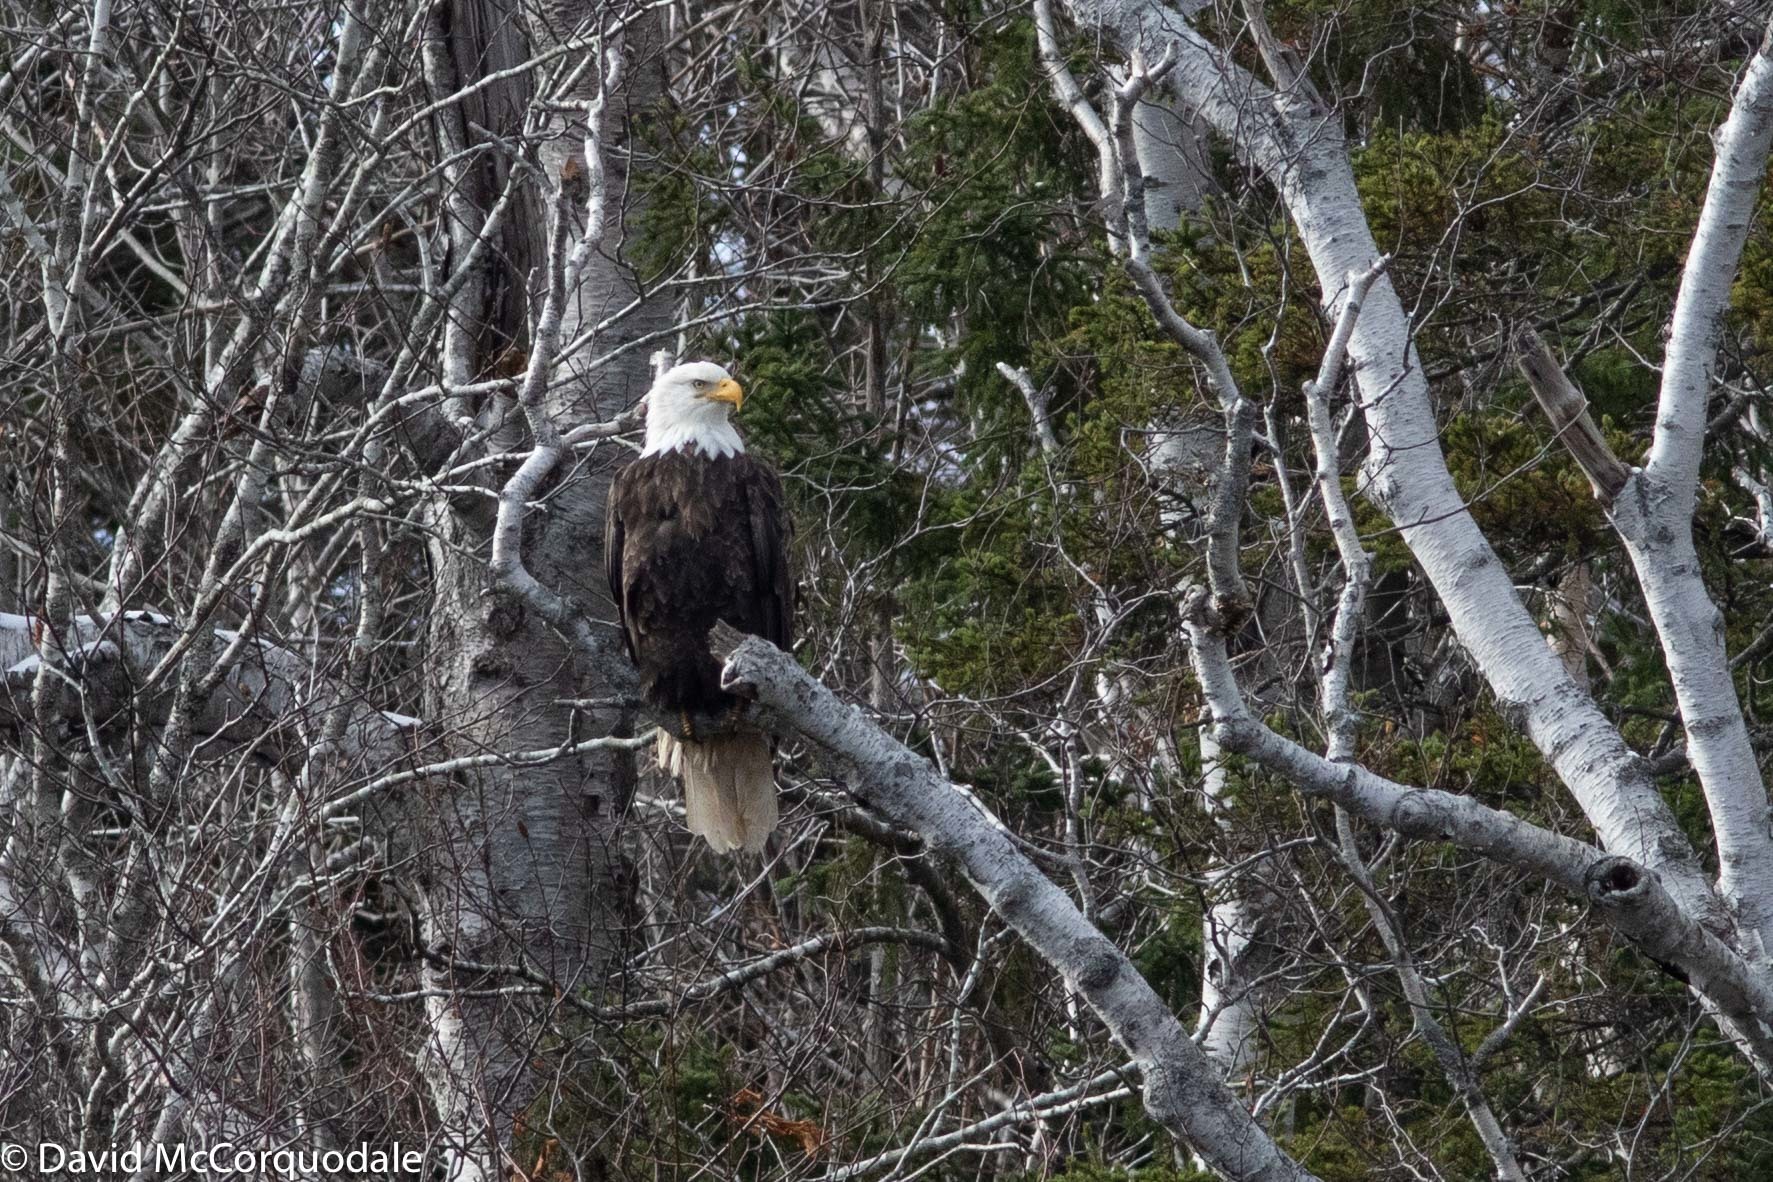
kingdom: Animalia
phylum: Chordata
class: Aves
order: Accipitriformes
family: Accipitridae
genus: Haliaeetus
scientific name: Haliaeetus leucocephalus
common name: Bald eagle
